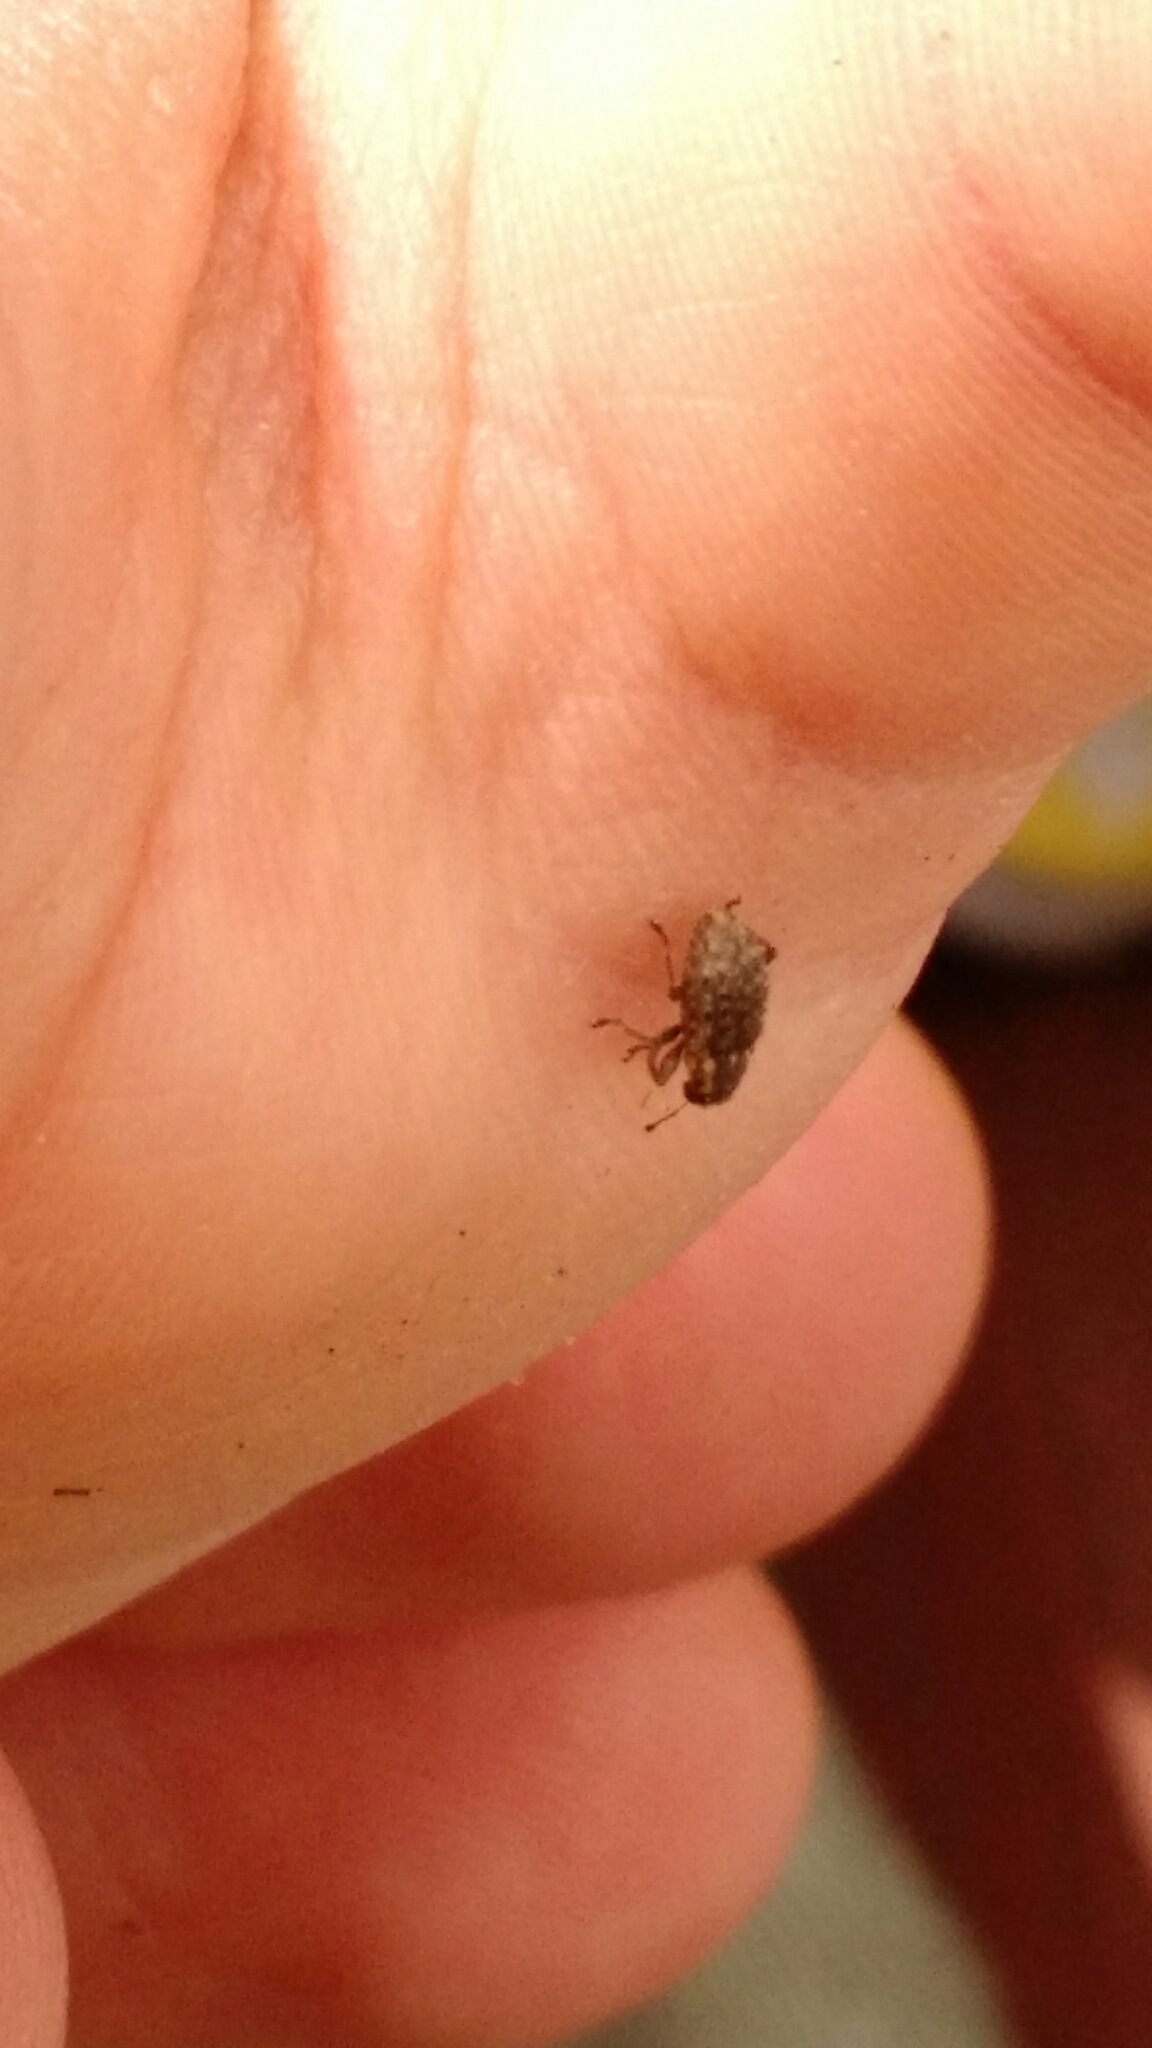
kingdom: Animalia
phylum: Arthropoda
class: Insecta
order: Coleoptera
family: Curculionidae
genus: Sitona
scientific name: Sitona hispidulus
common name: Clover weevil
